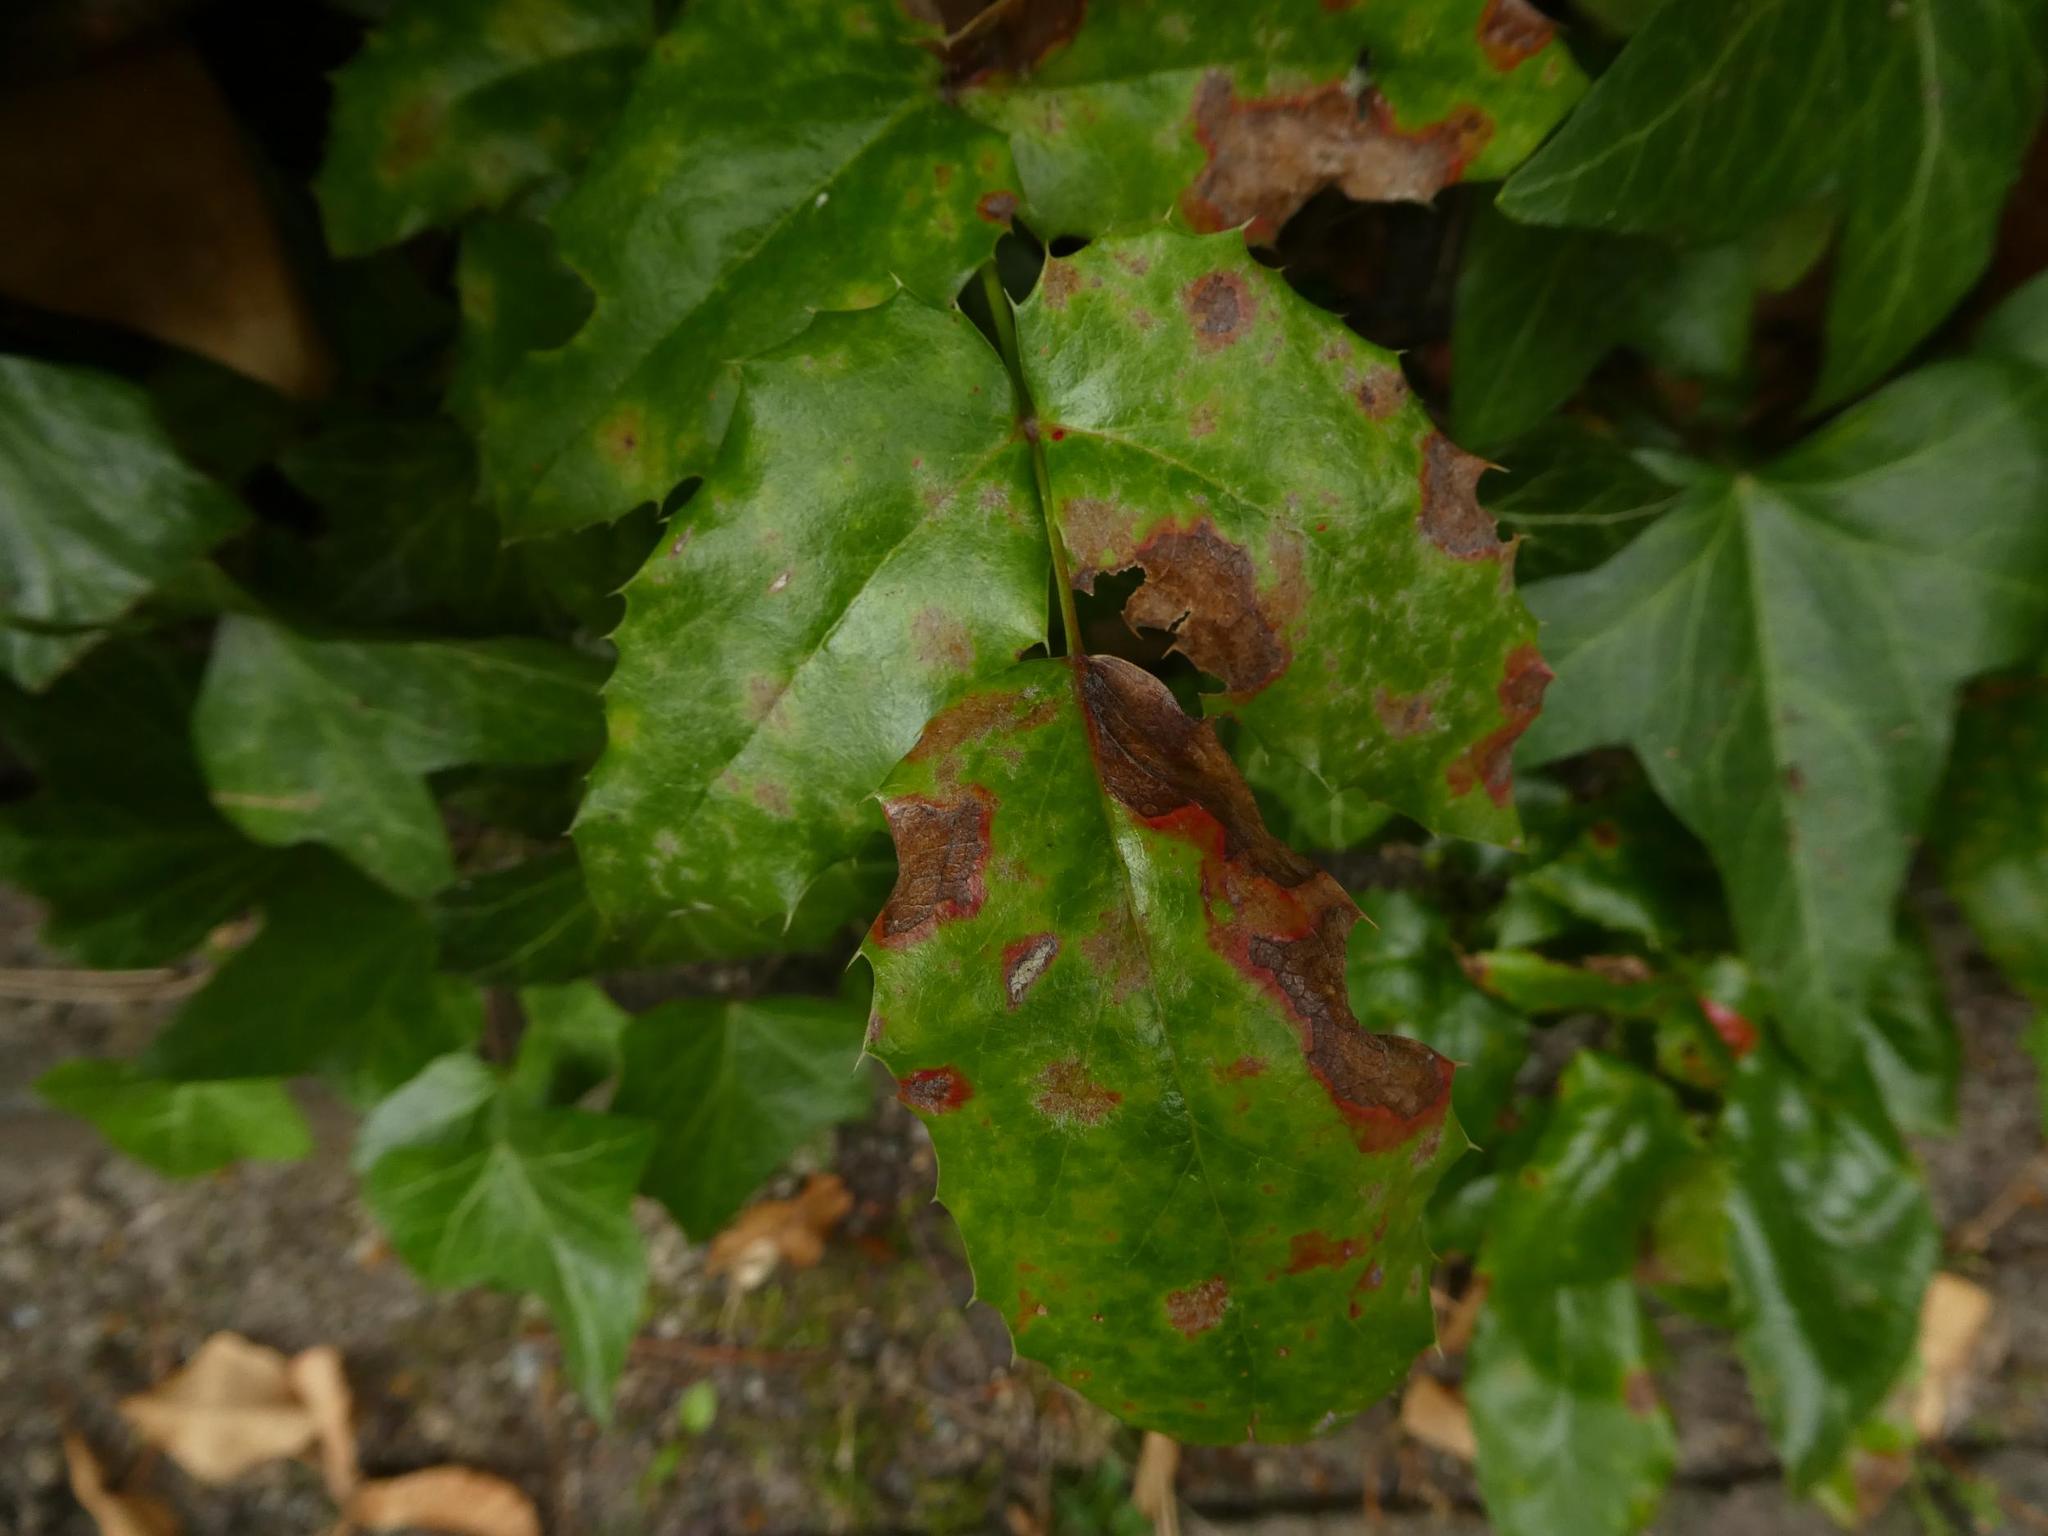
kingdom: Plantae
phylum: Tracheophyta
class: Magnoliopsida
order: Ranunculales
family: Berberidaceae
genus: Mahonia
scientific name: Mahonia aquifolium
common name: Oregon-grape
